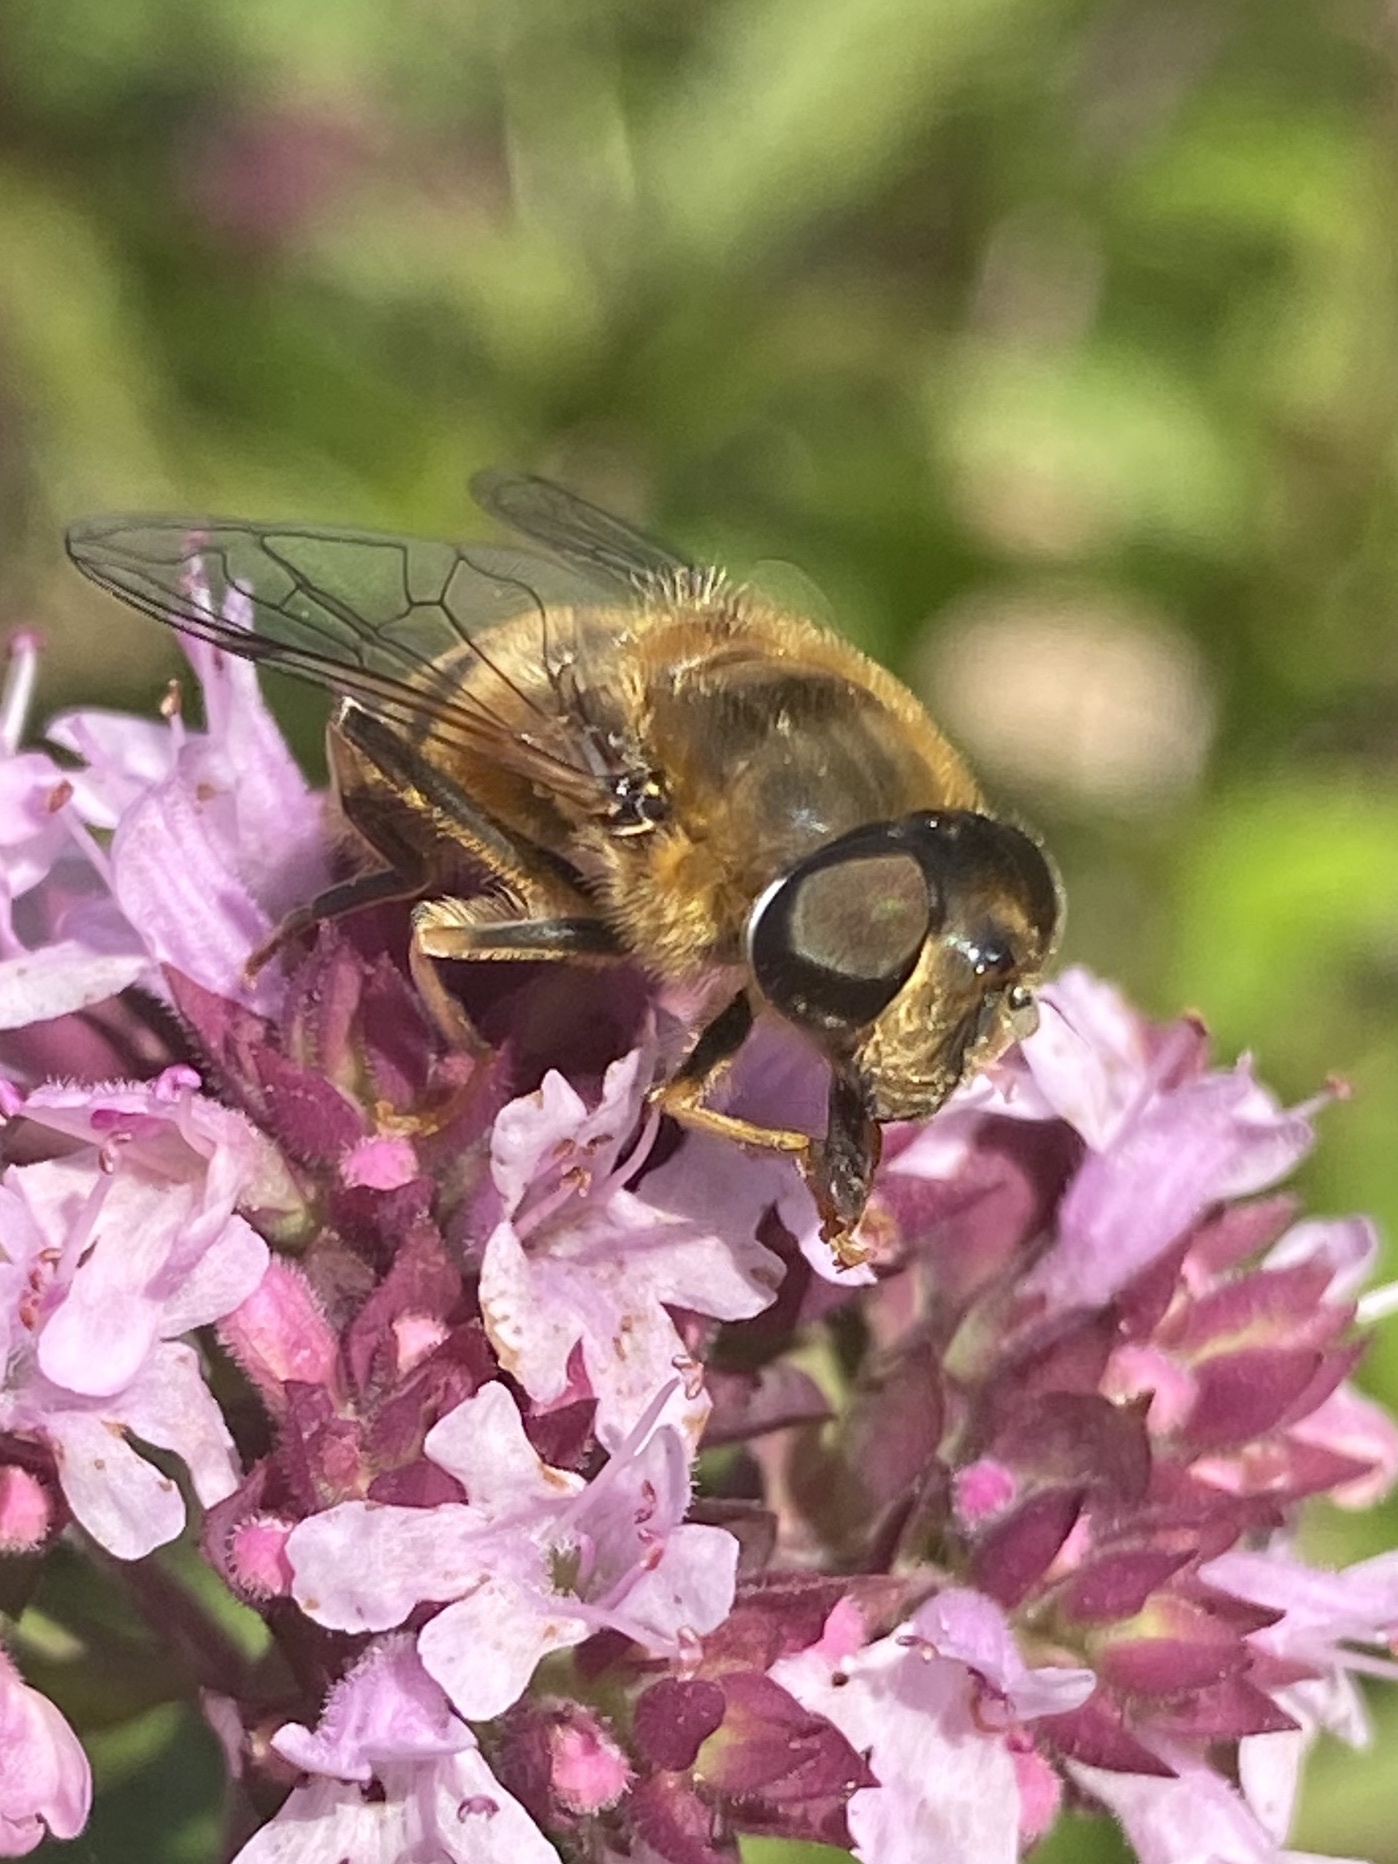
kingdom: Animalia
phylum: Arthropoda
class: Insecta
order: Diptera
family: Syrphidae
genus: Eristalis
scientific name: Eristalis pertinax
